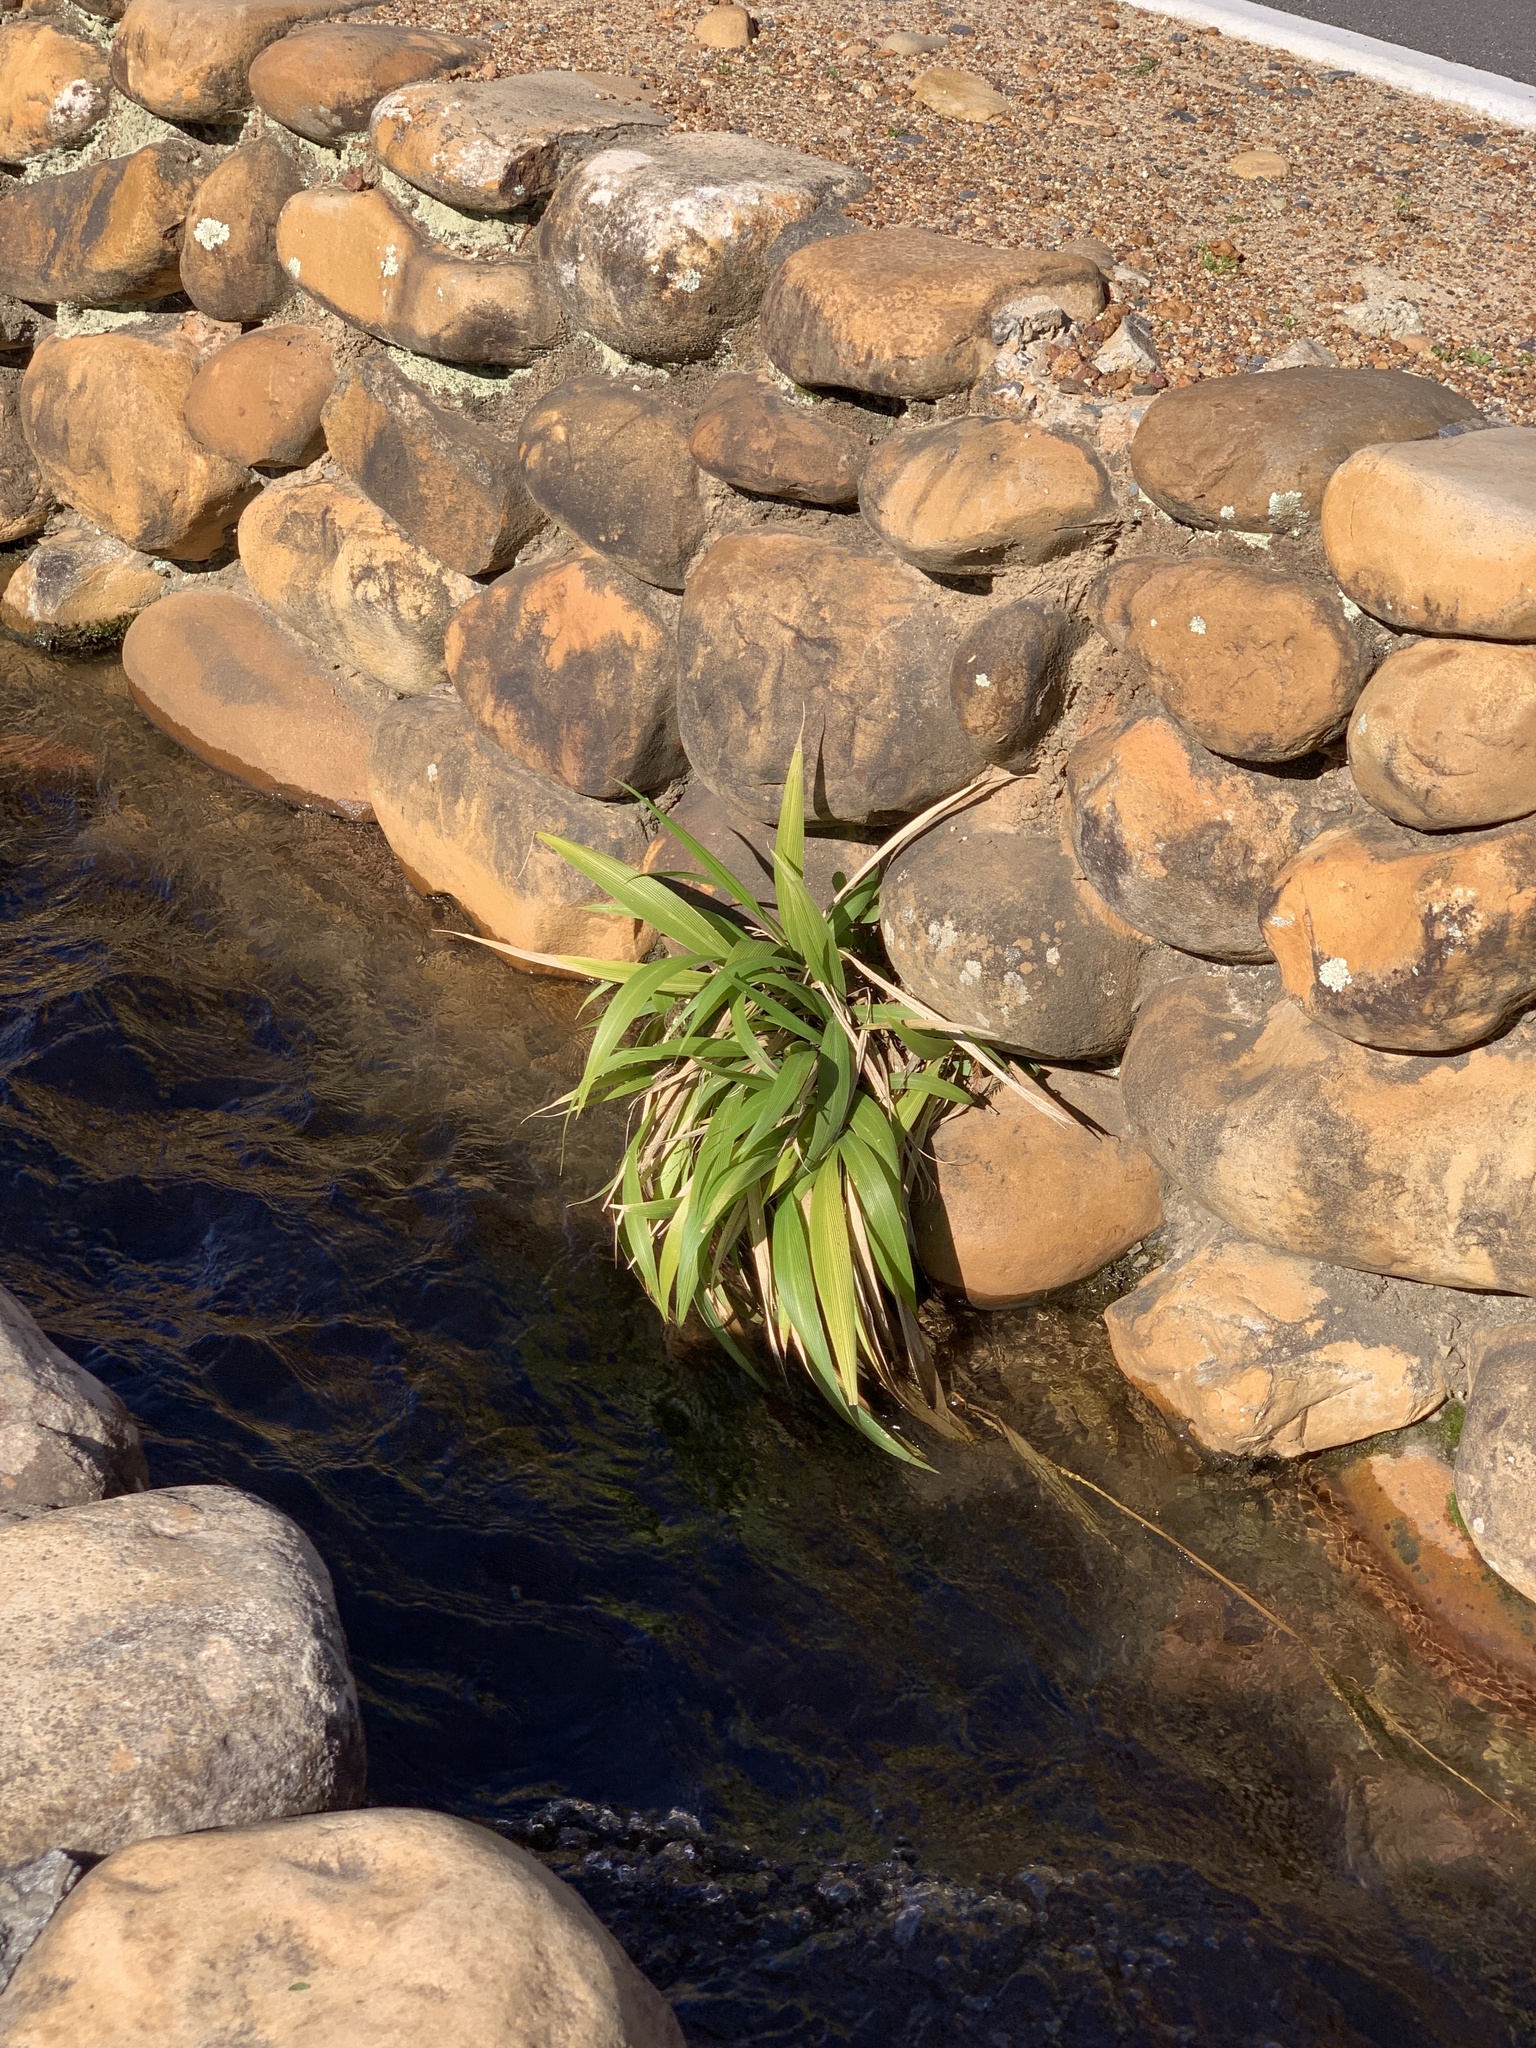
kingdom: Plantae
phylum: Tracheophyta
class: Liliopsida
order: Poales
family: Poaceae
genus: Setaria
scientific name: Setaria megaphylla
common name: Bigleaf bristlegrass
